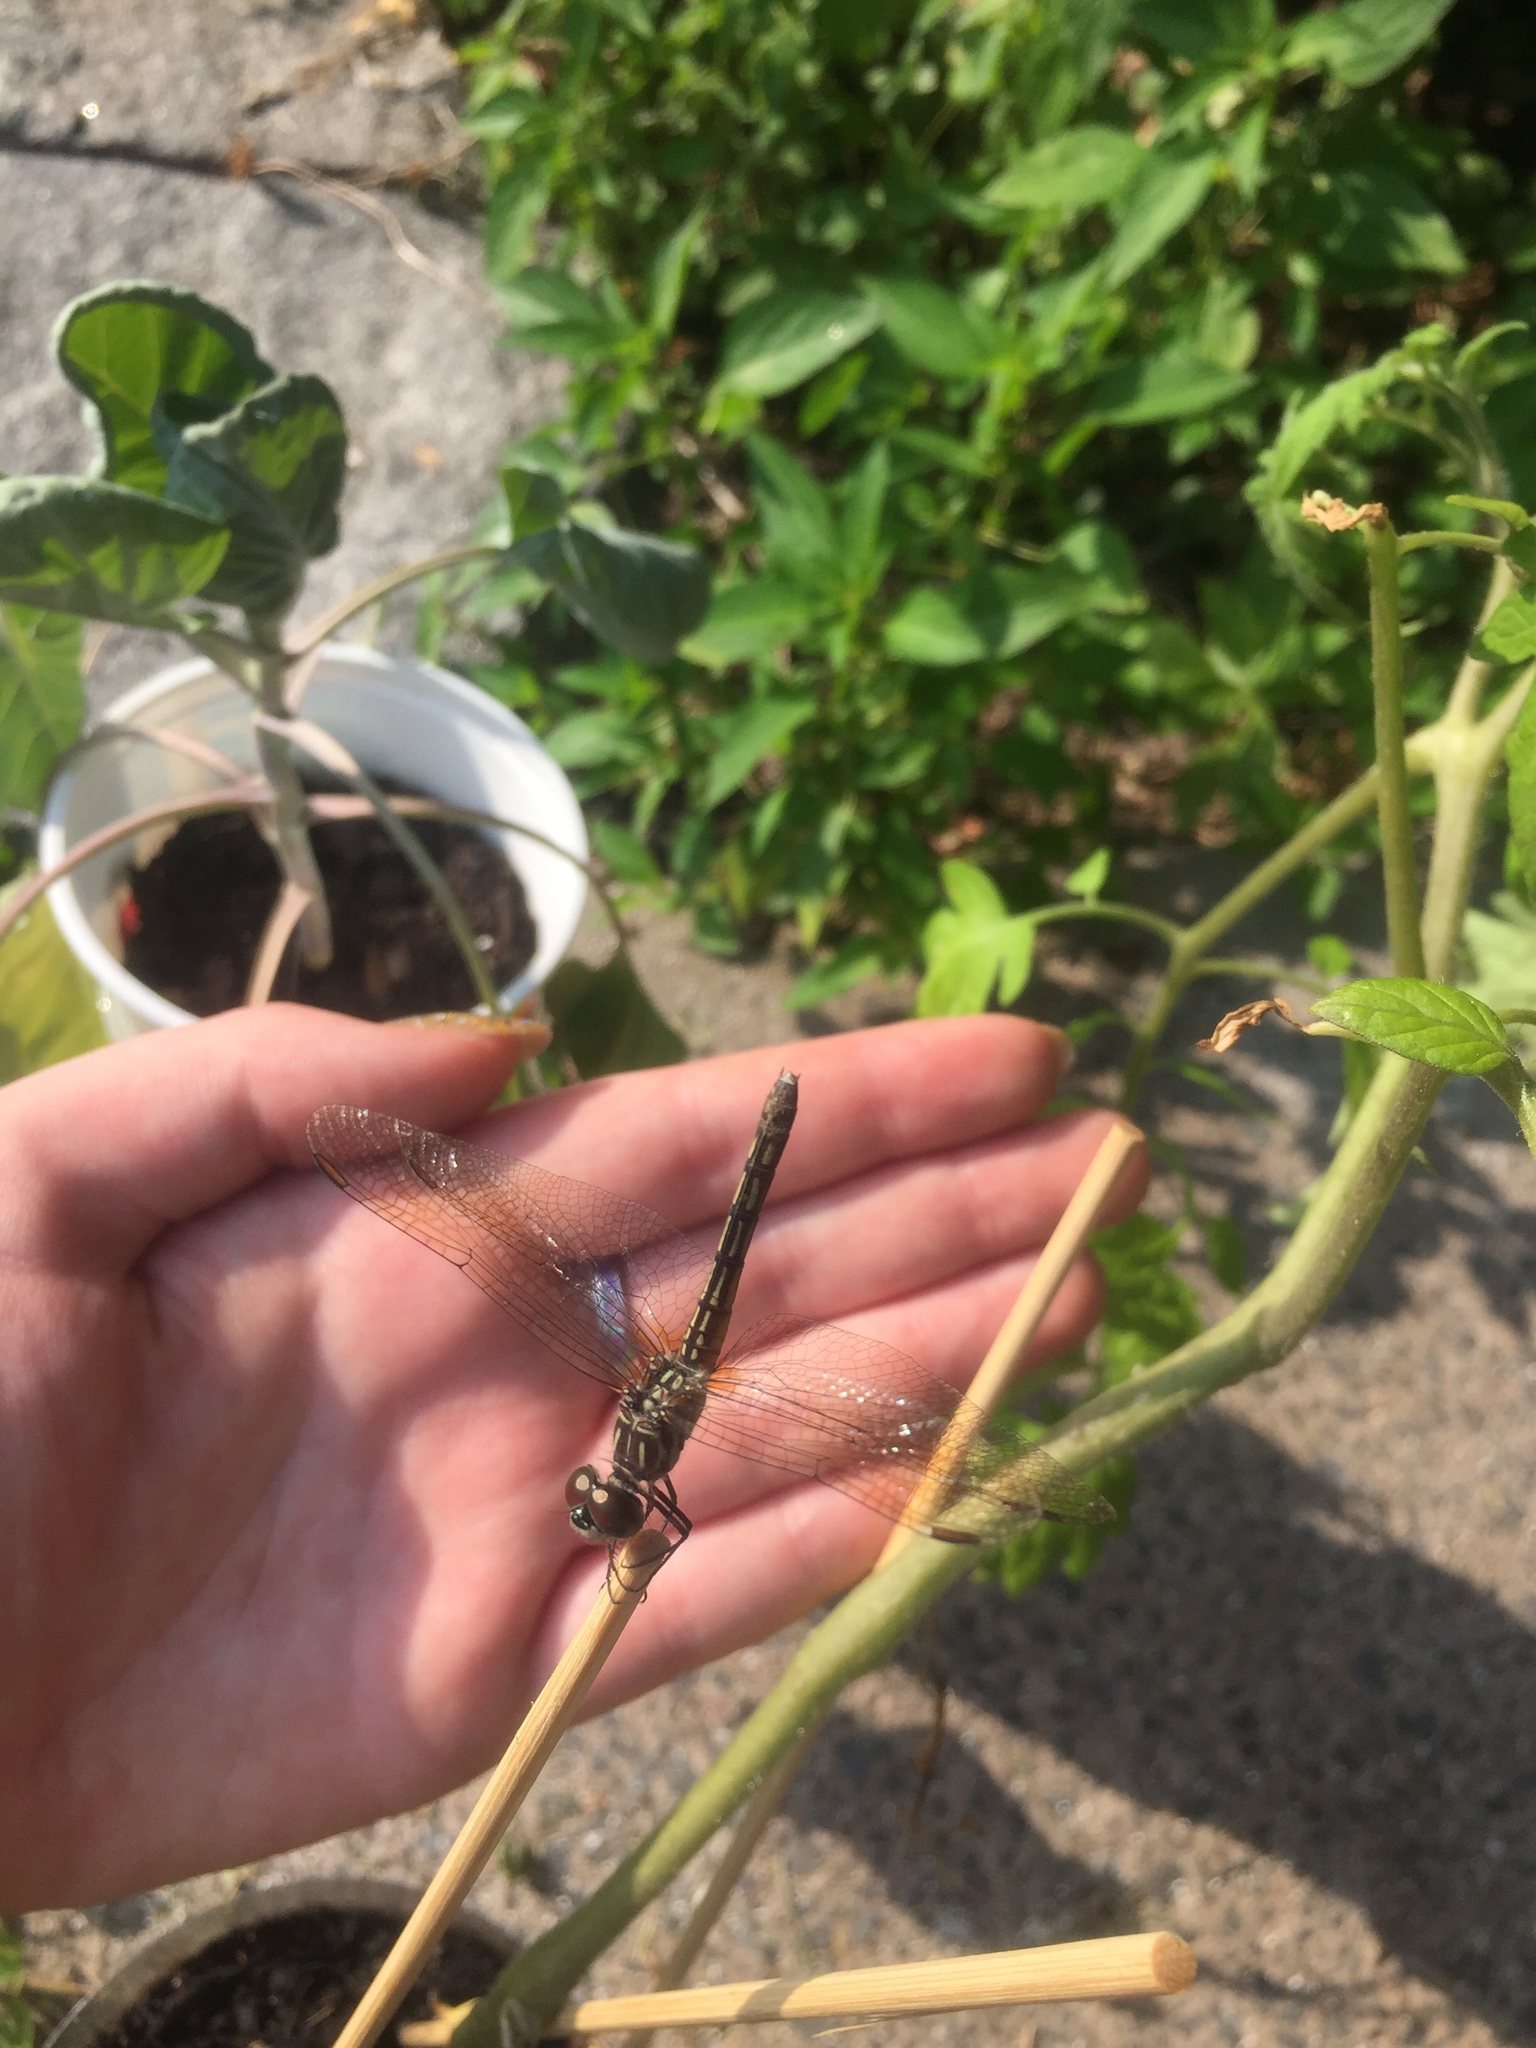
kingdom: Animalia
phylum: Arthropoda
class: Insecta
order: Odonata
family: Libellulidae
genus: Pachydiplax
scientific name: Pachydiplax longipennis
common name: Blue dasher
